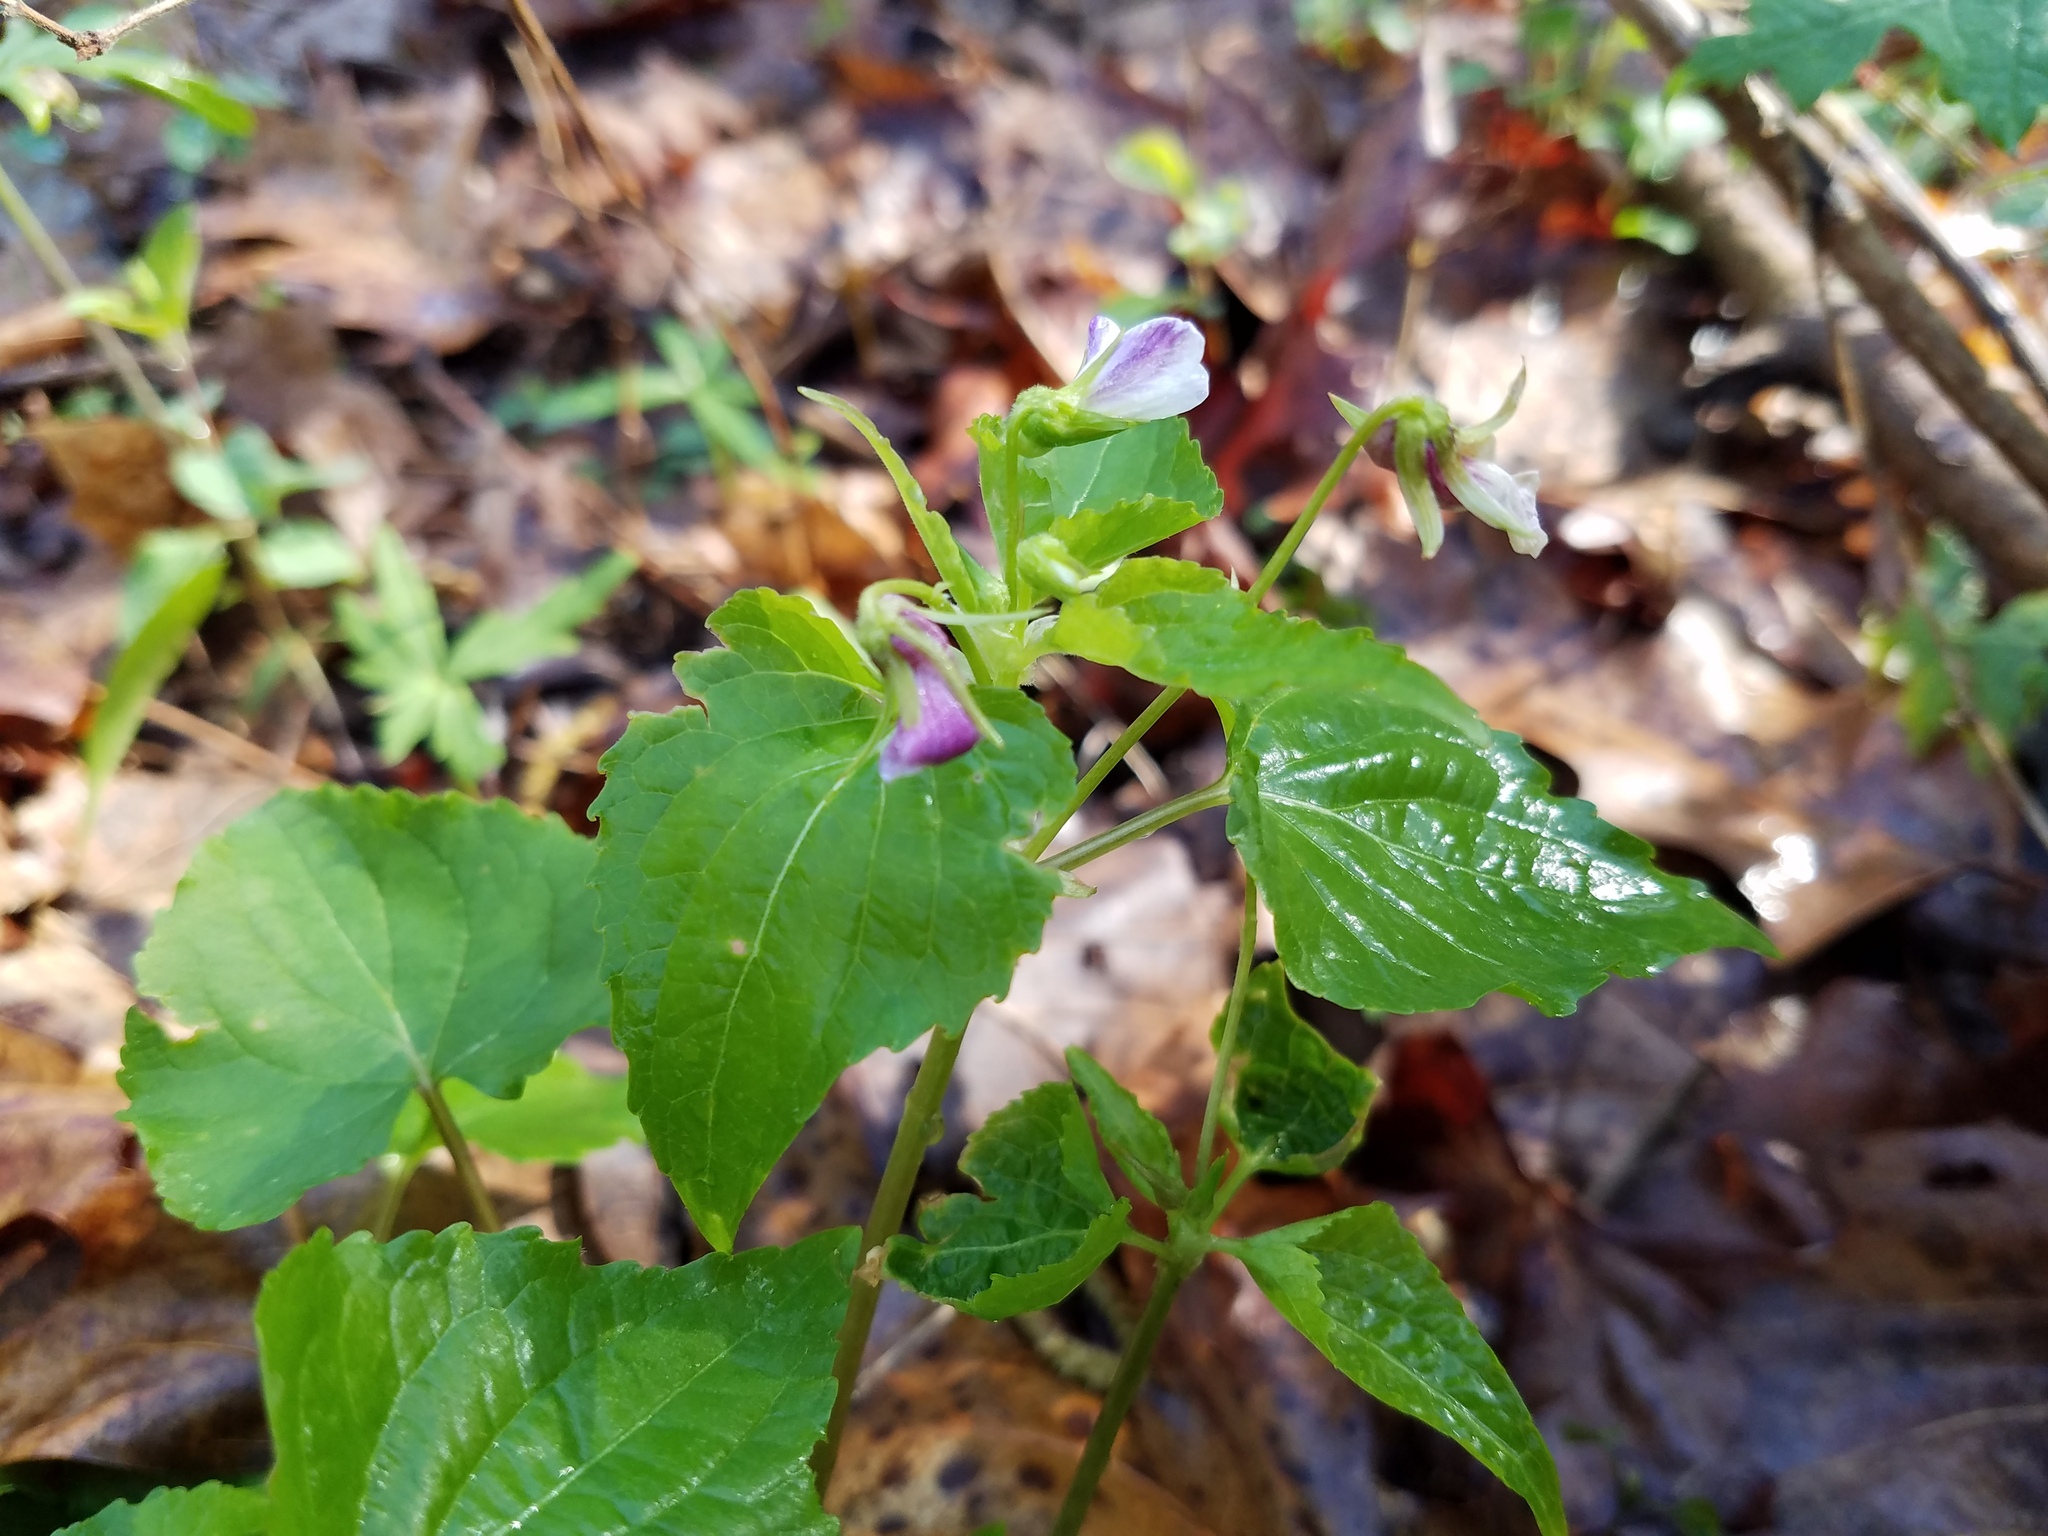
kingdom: Plantae
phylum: Tracheophyta
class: Magnoliopsida
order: Malpighiales
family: Violaceae
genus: Viola
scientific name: Viola canadensis
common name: Canada violet
